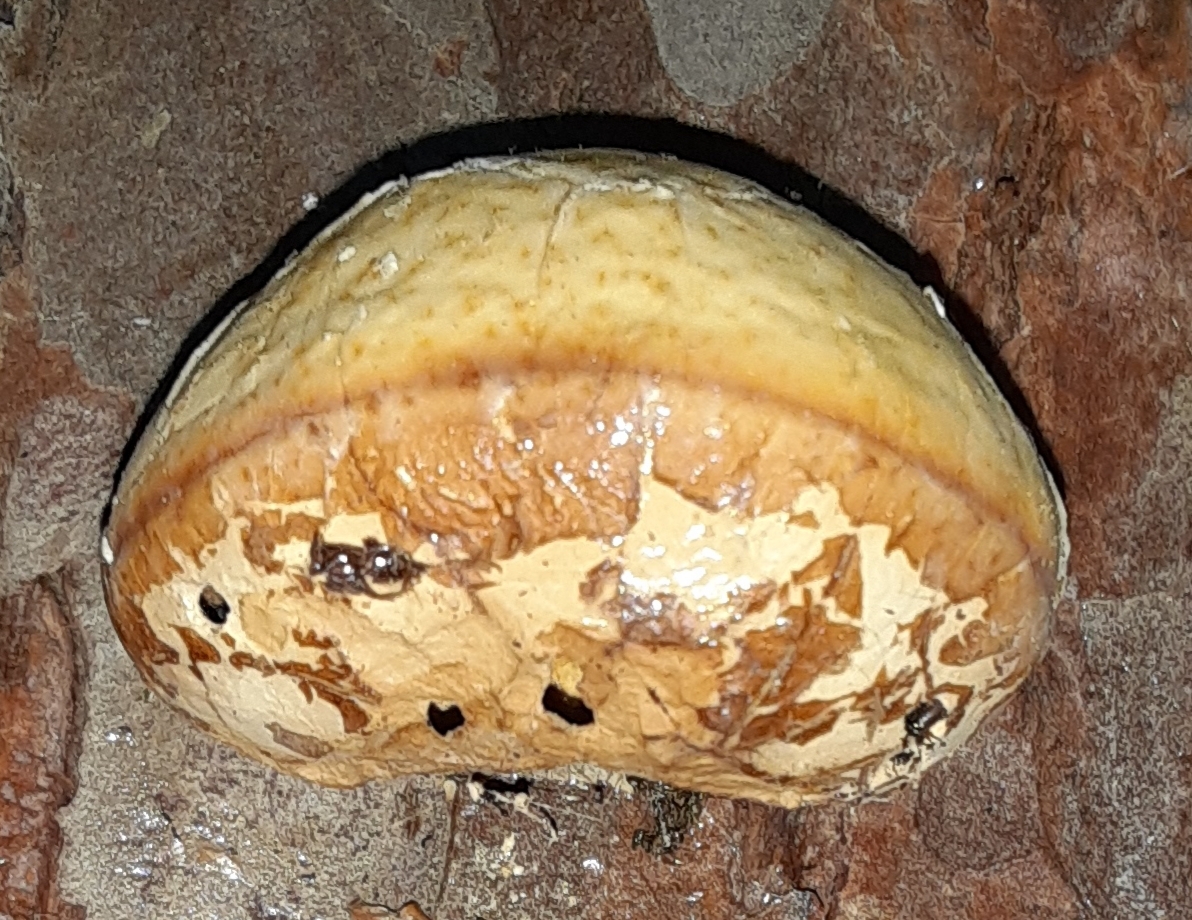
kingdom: Fungi
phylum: Basidiomycota
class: Agaricomycetes
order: Polyporales
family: Polyporaceae
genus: Cryptoporus
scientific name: Cryptoporus volvatus
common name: Veiled polypore
